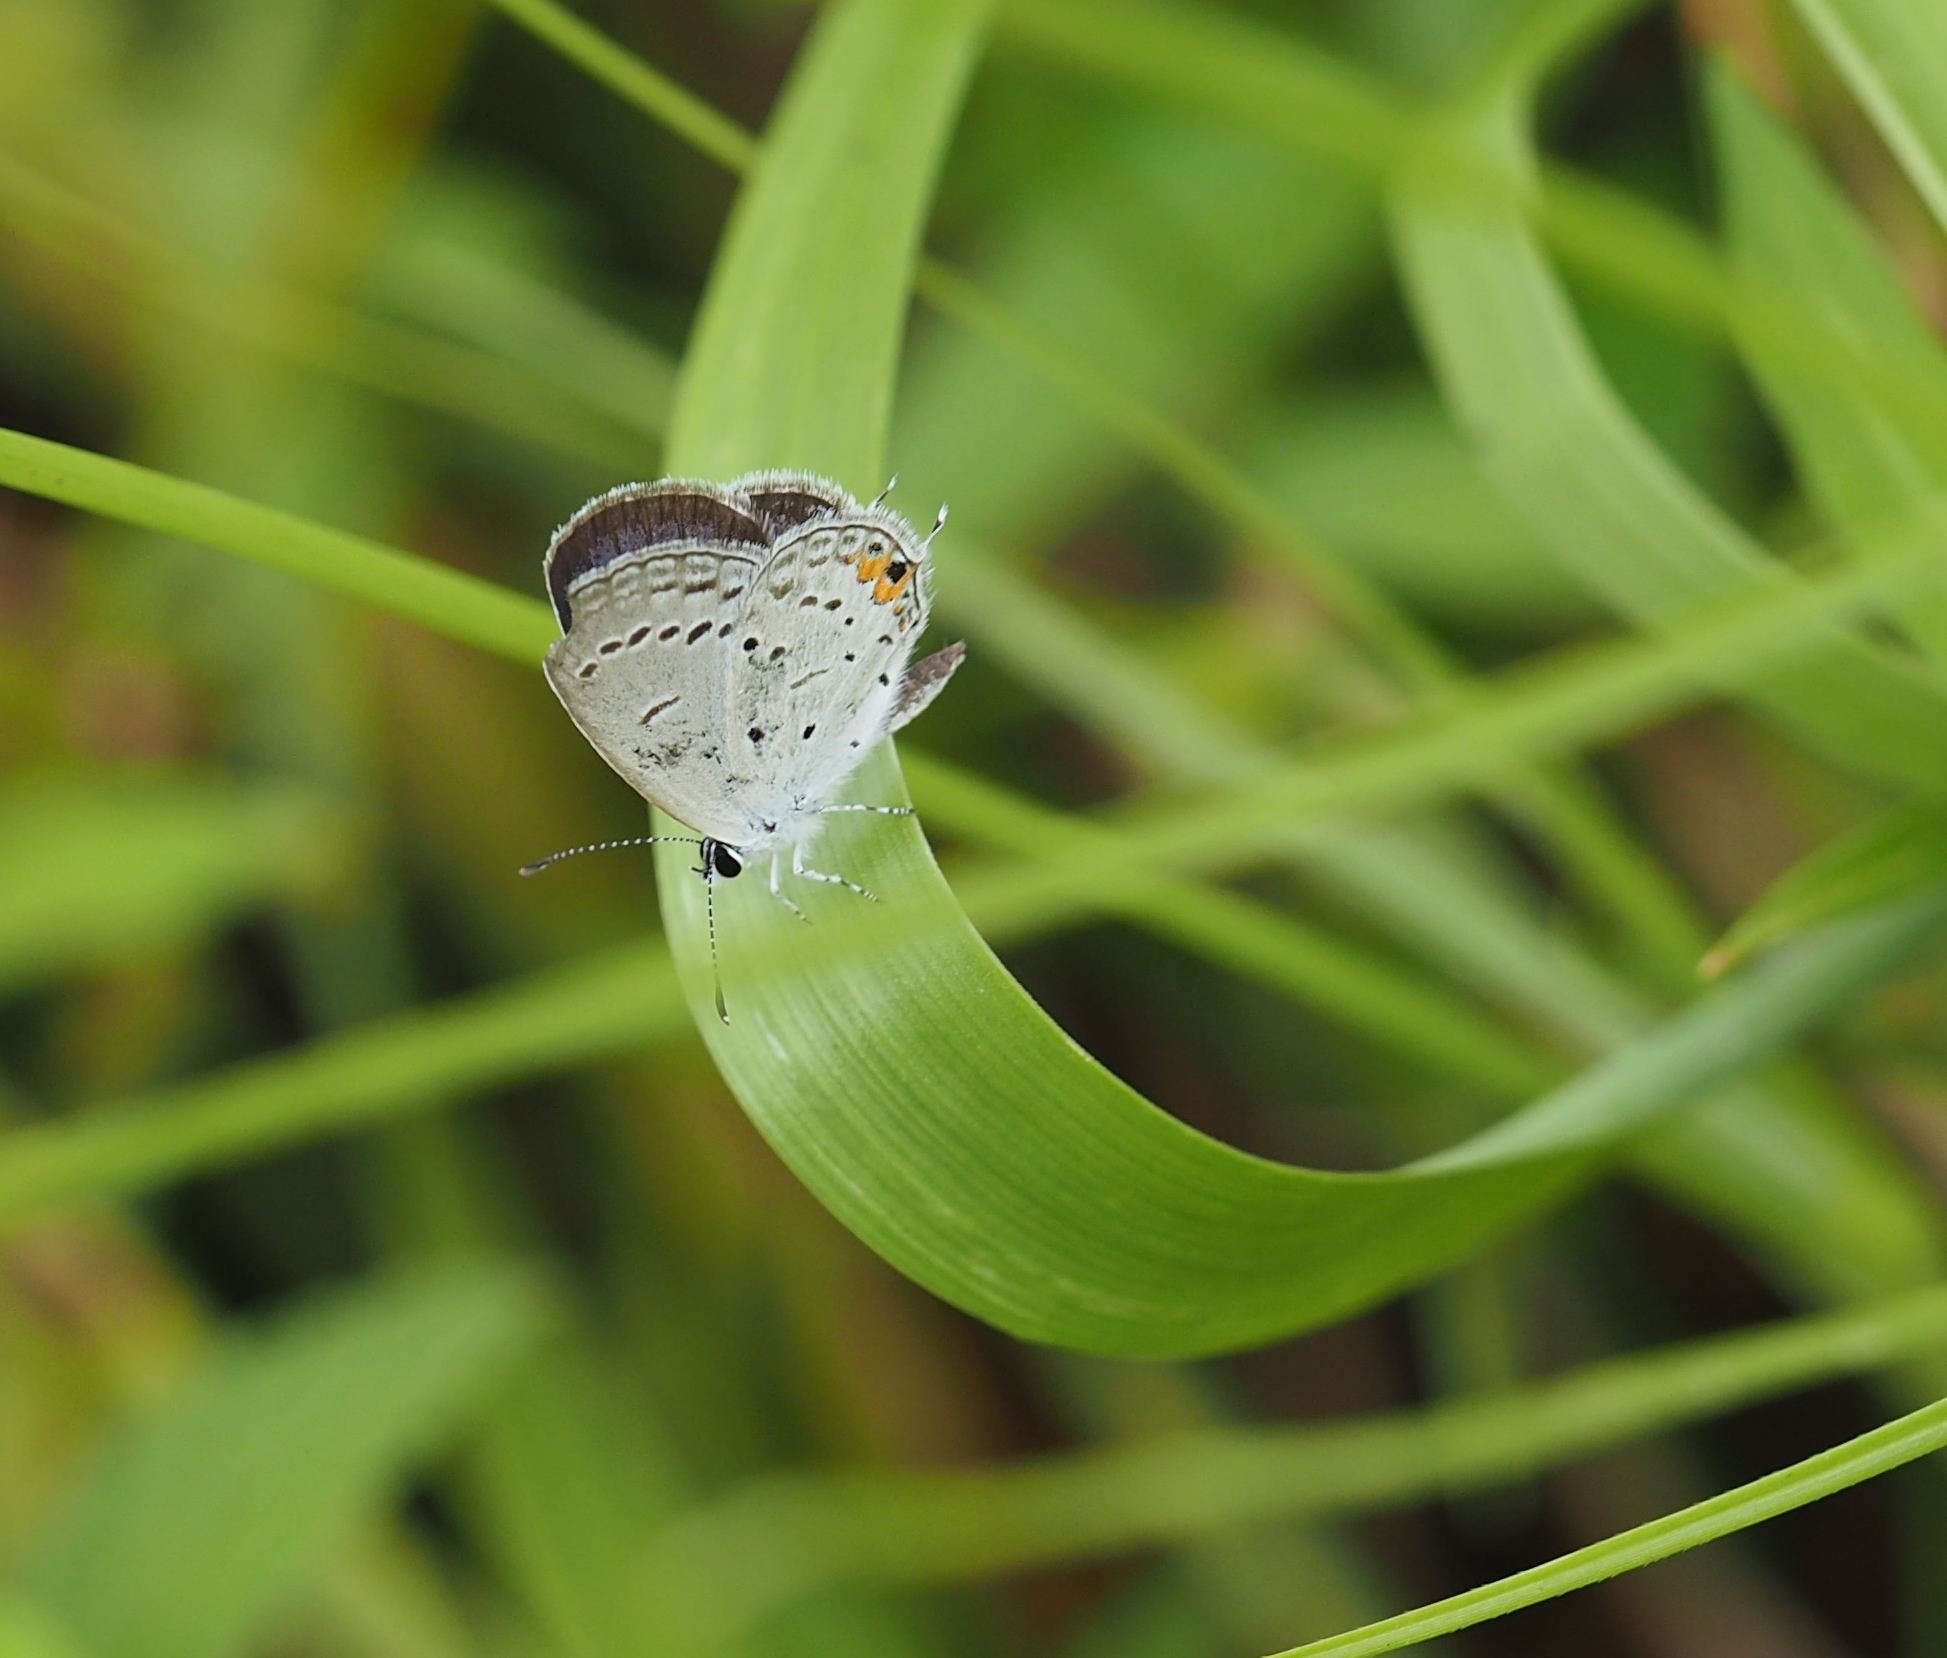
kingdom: Animalia
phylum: Arthropoda
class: Insecta
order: Lepidoptera
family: Lycaenidae
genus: Elkalyce
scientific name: Elkalyce comyntas
